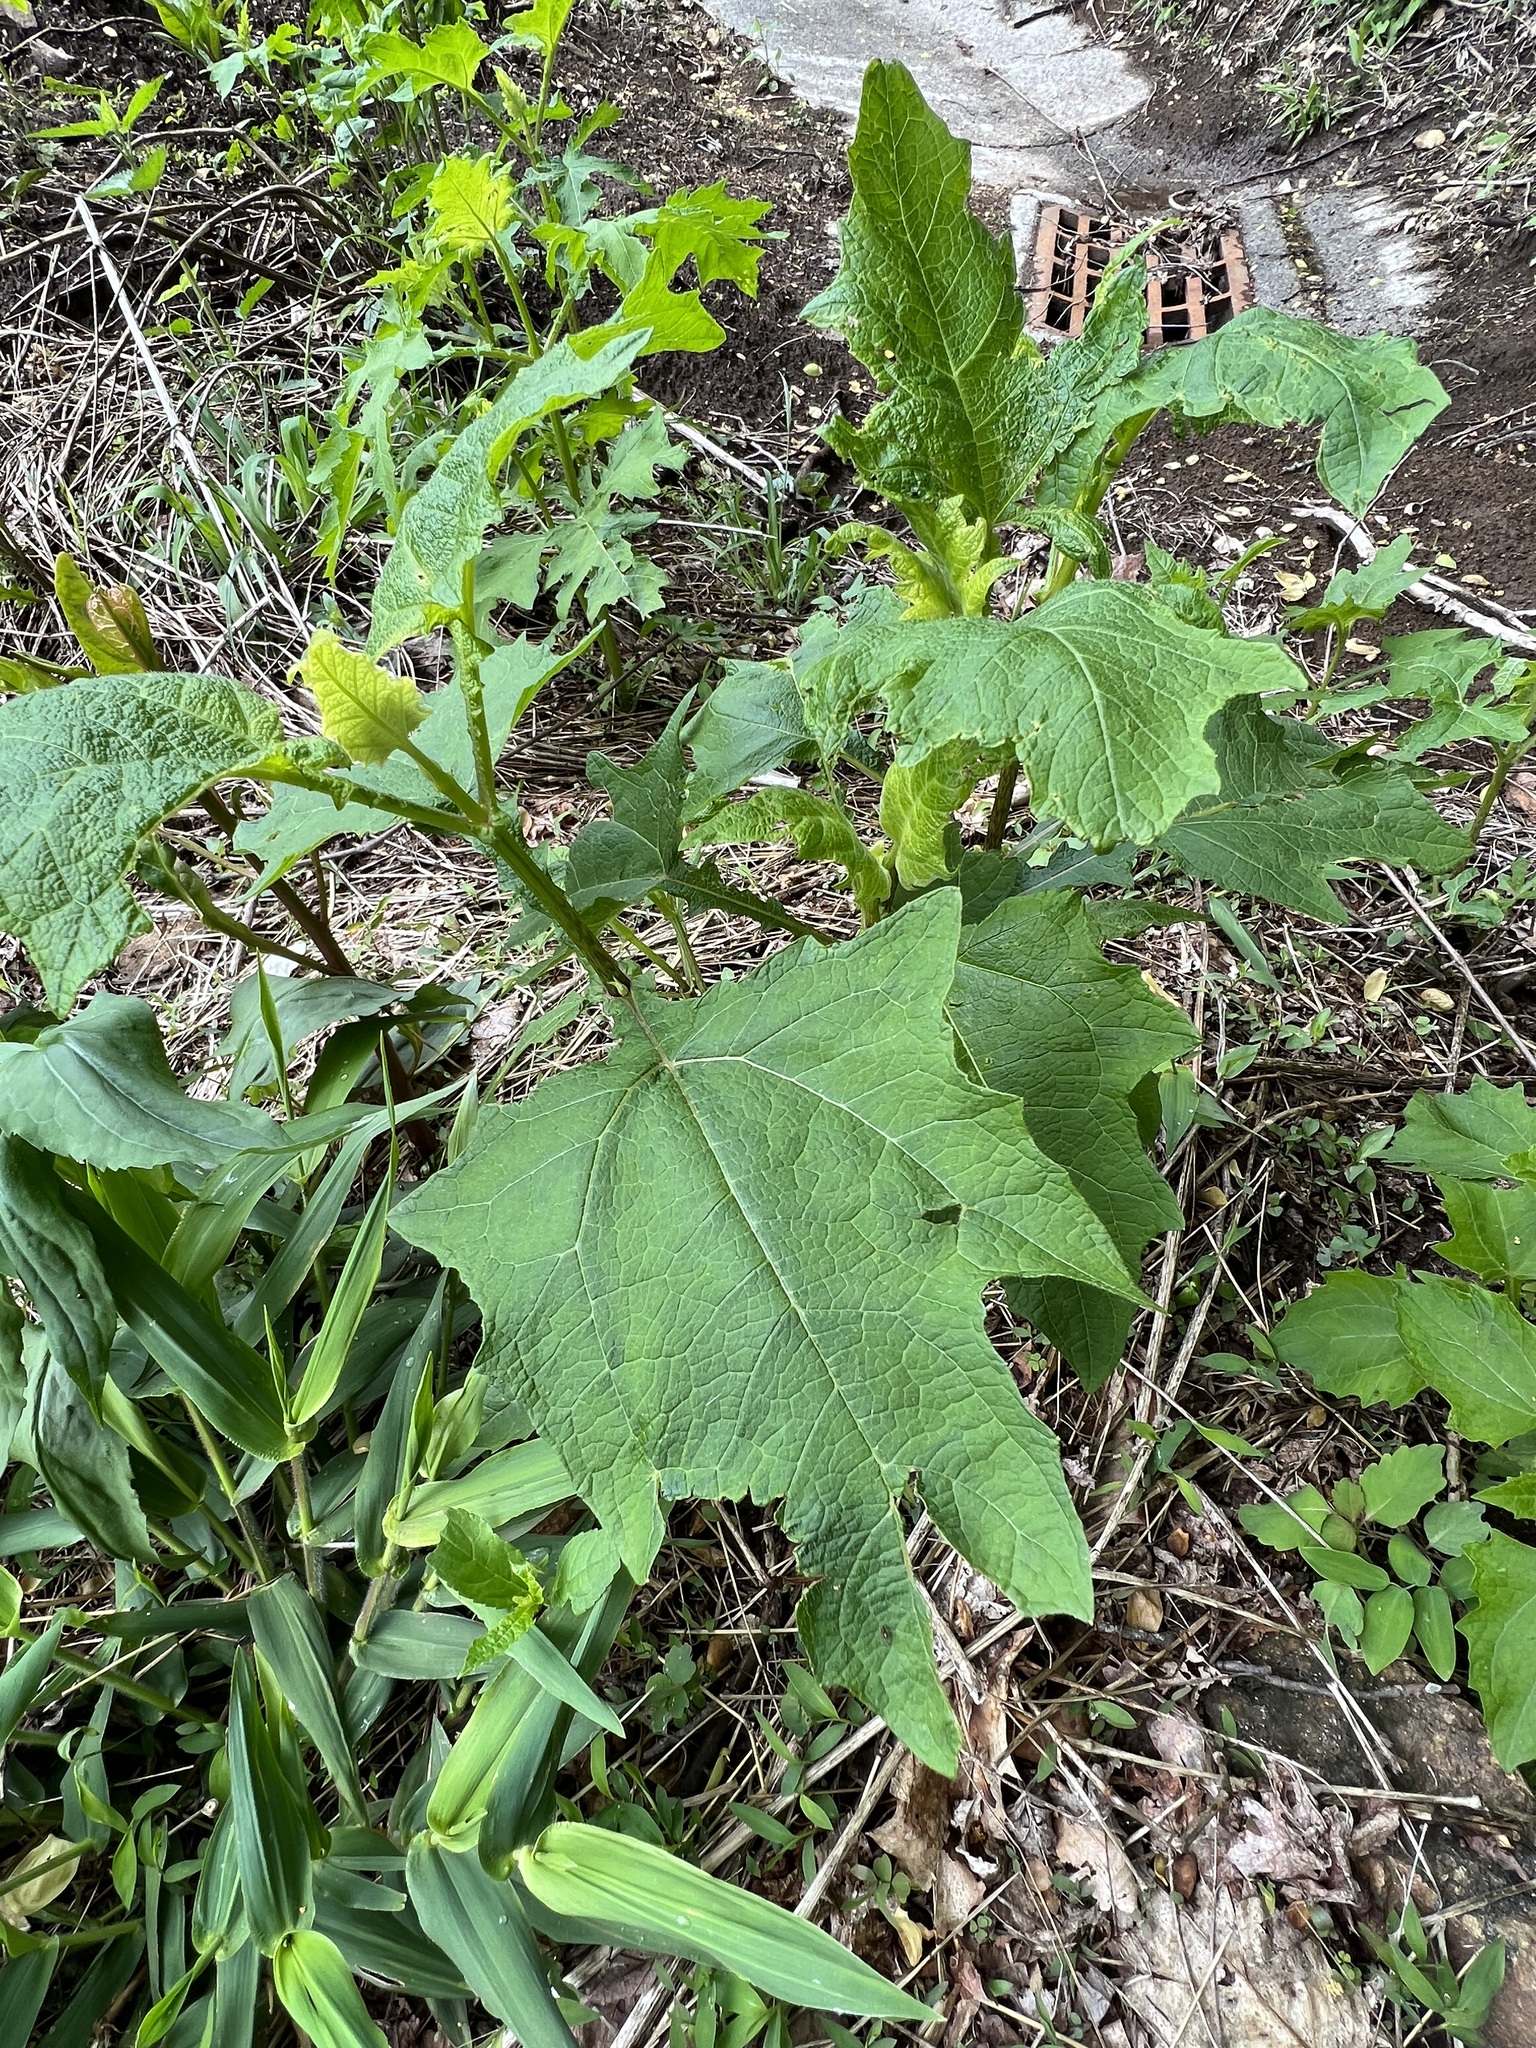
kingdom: Plantae
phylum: Tracheophyta
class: Magnoliopsida
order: Asterales
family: Asteraceae
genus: Smallanthus
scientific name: Smallanthus uvedalia
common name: Bear's-foot
